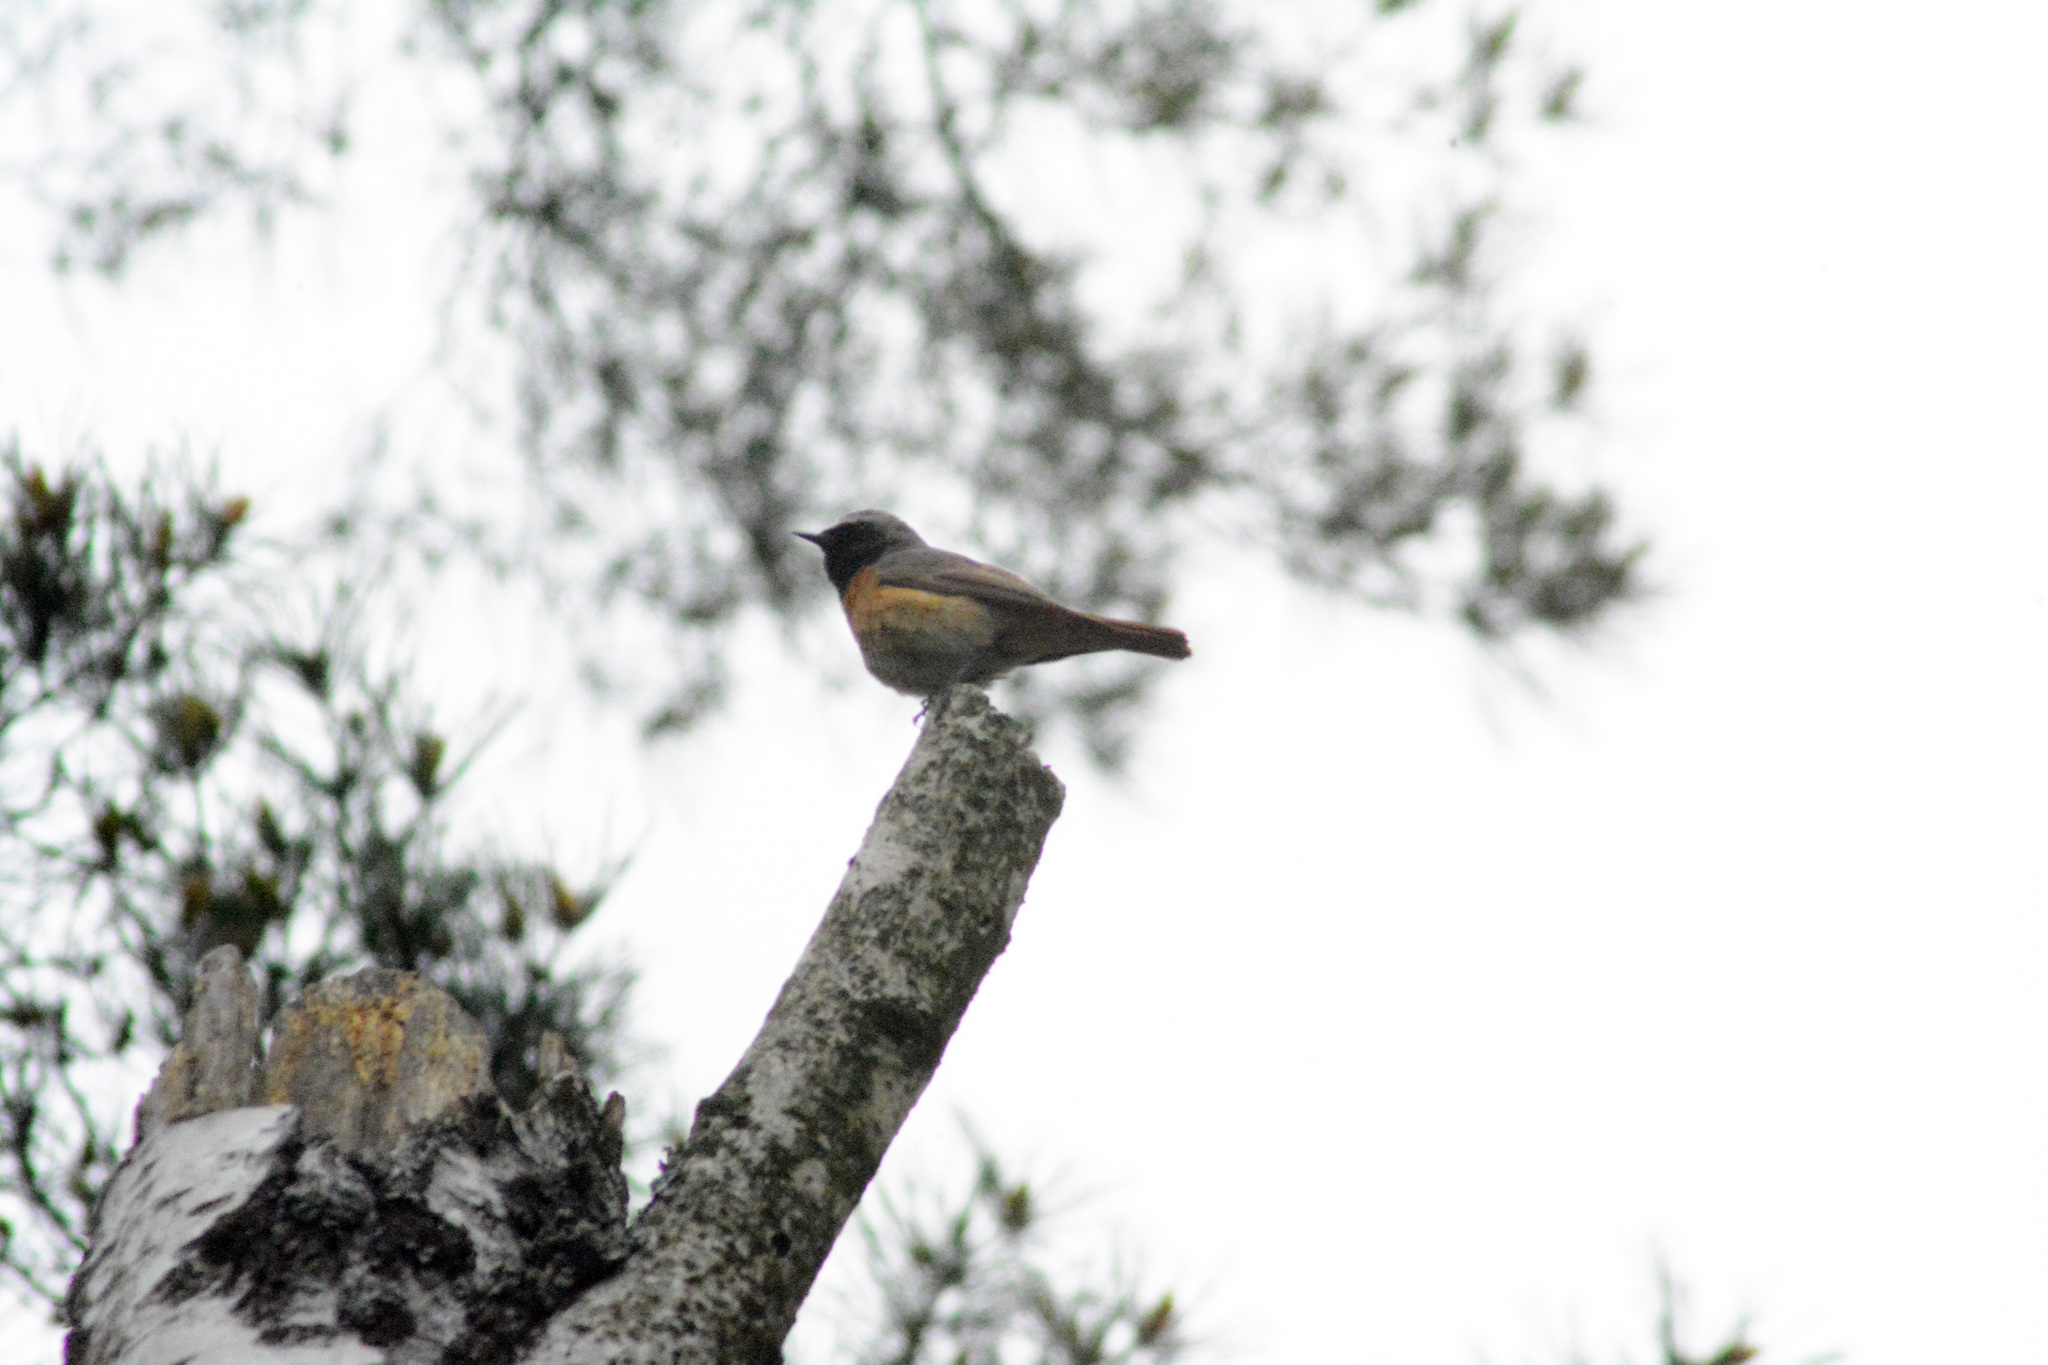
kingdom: Animalia
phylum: Chordata
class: Aves
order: Passeriformes
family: Muscicapidae
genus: Phoenicurus
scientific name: Phoenicurus phoenicurus
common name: Common redstart
